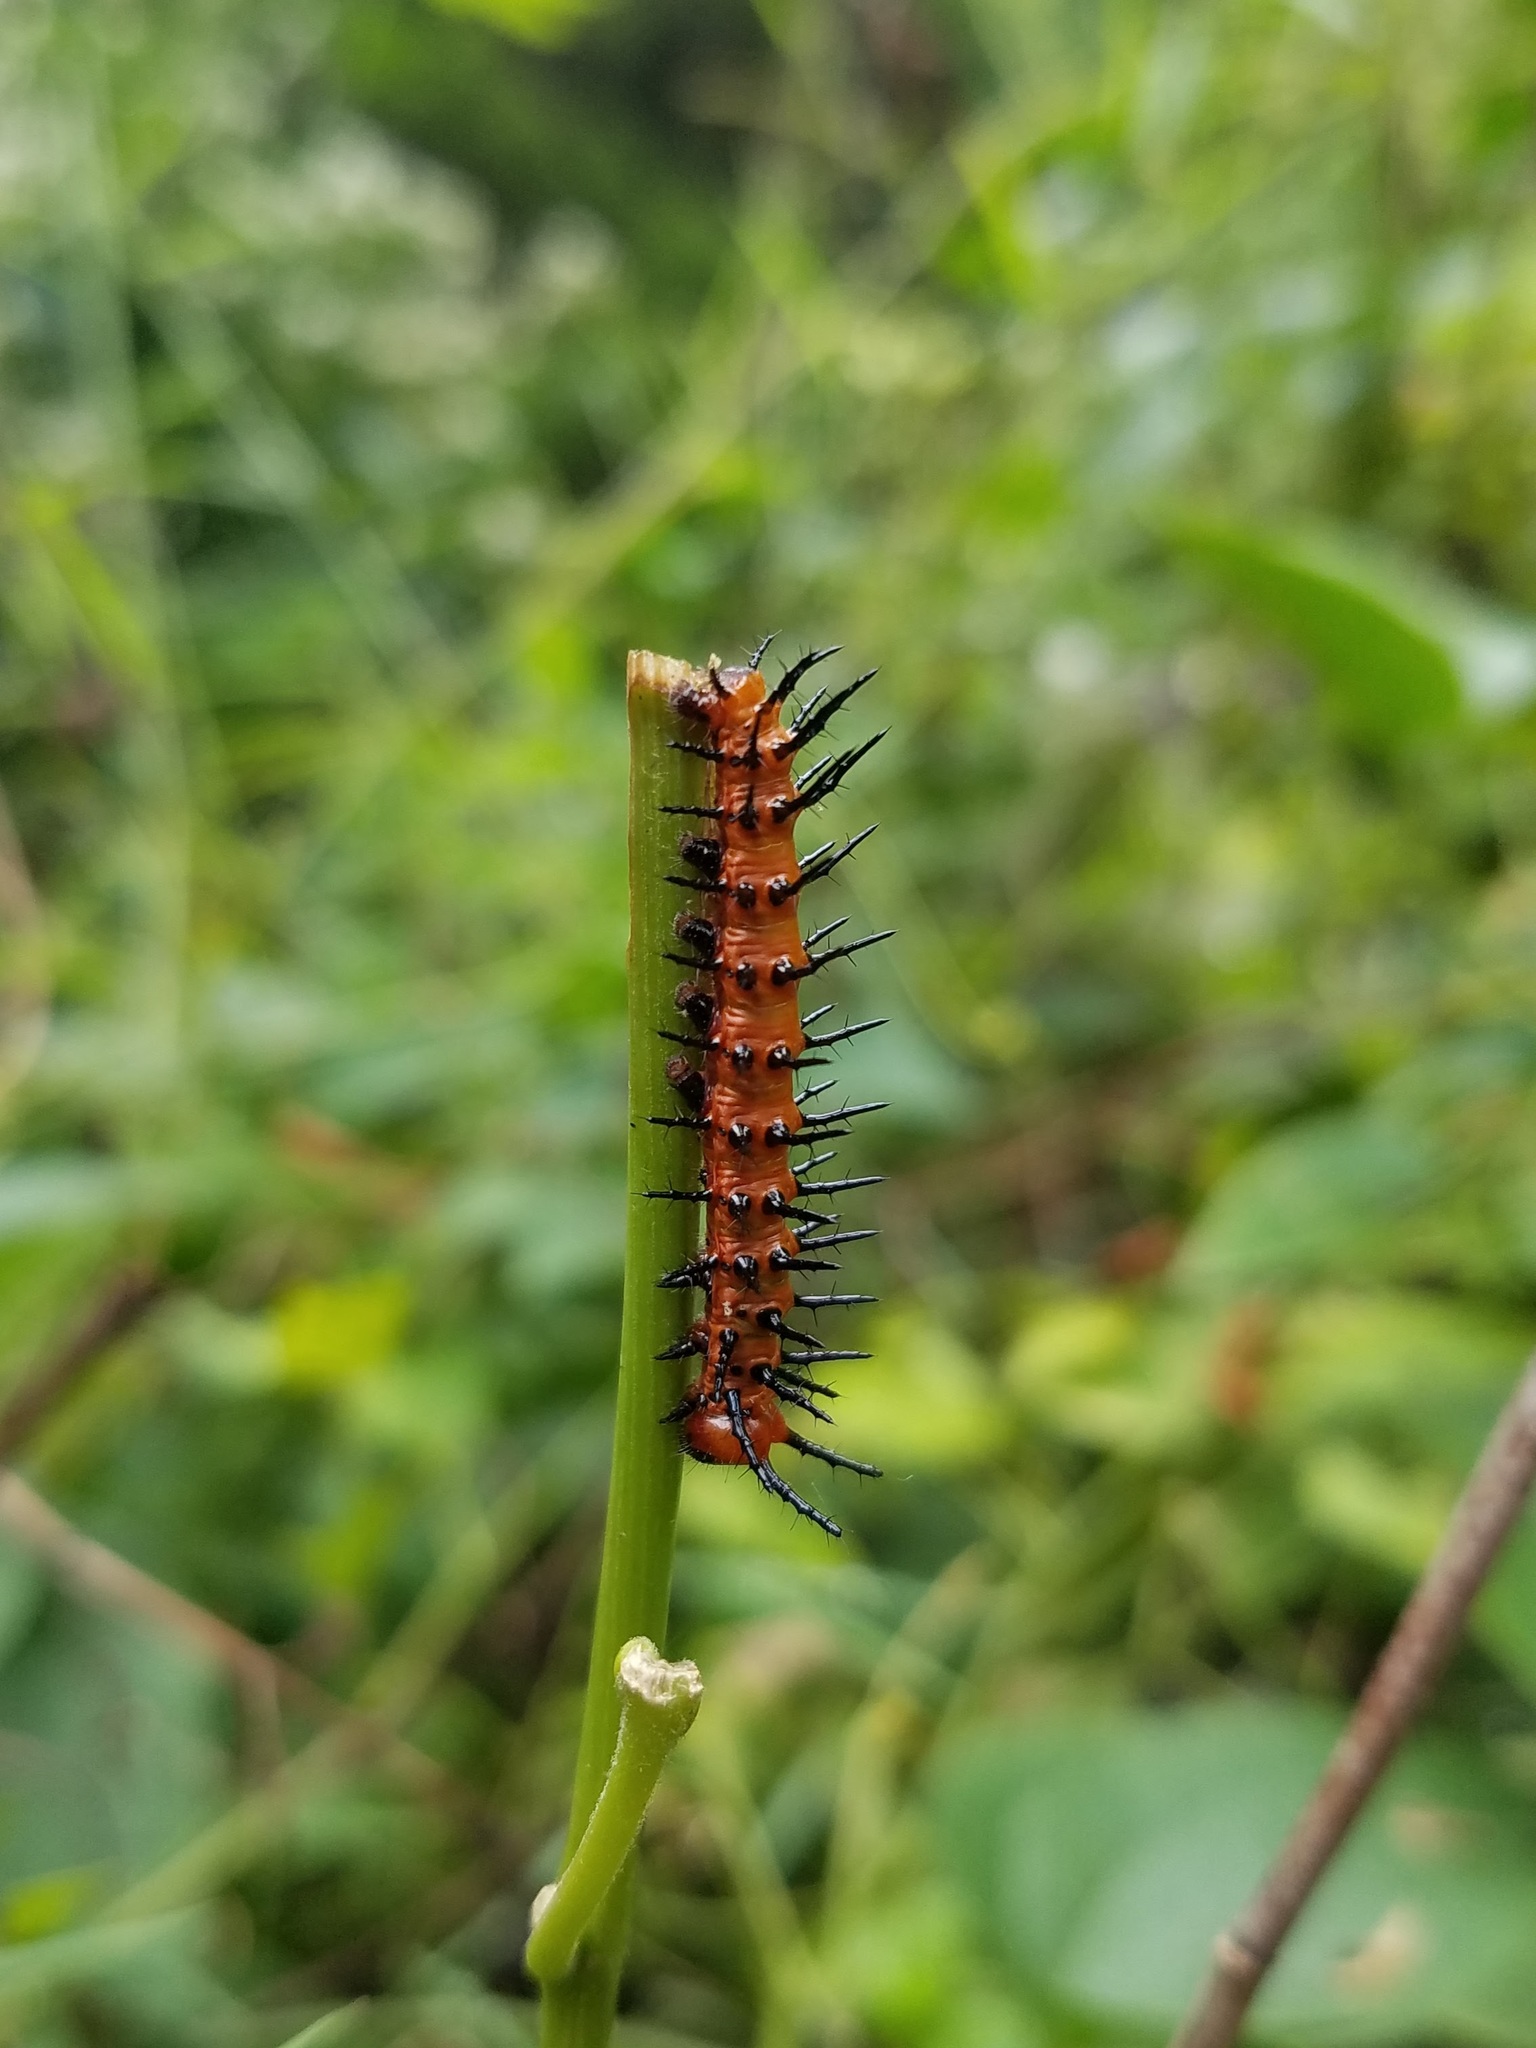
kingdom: Animalia
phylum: Arthropoda
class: Insecta
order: Lepidoptera
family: Nymphalidae
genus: Dione
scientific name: Dione vanillae
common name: Gulf fritillary
